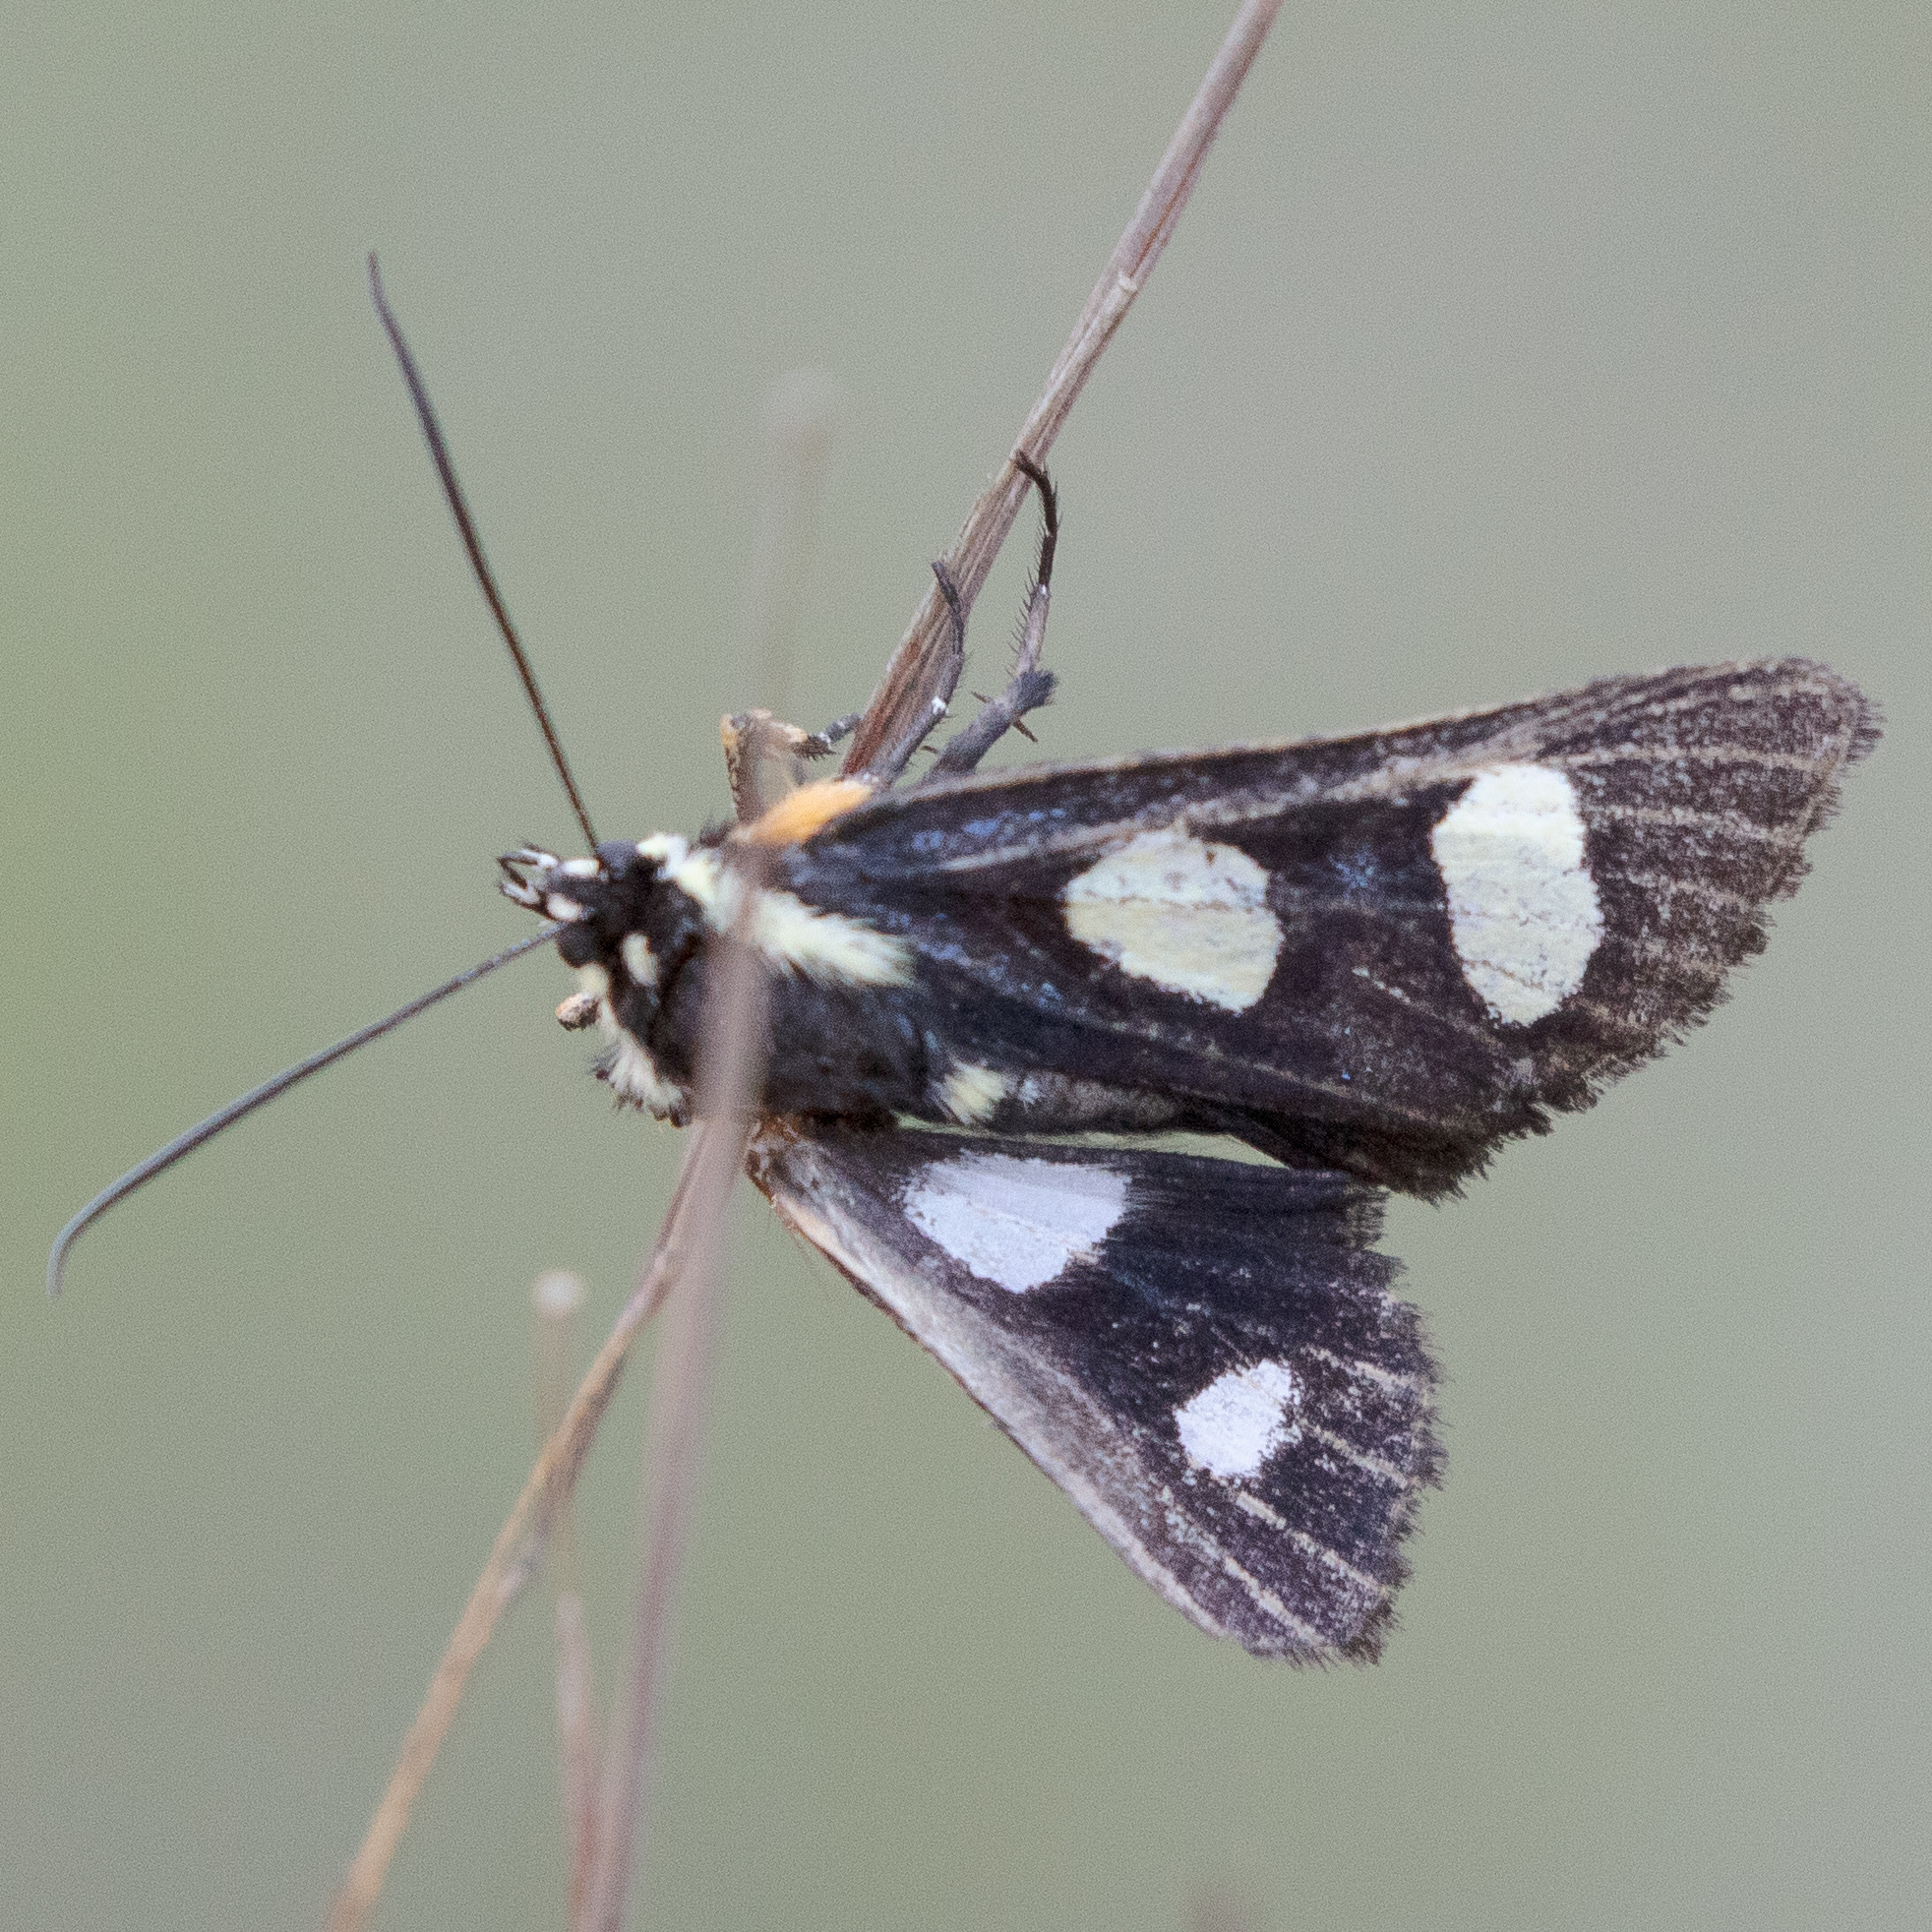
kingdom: Animalia
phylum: Arthropoda
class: Insecta
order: Lepidoptera
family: Noctuidae
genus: Alypia
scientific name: Alypia octomaculata
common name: Eight-spotted forester
